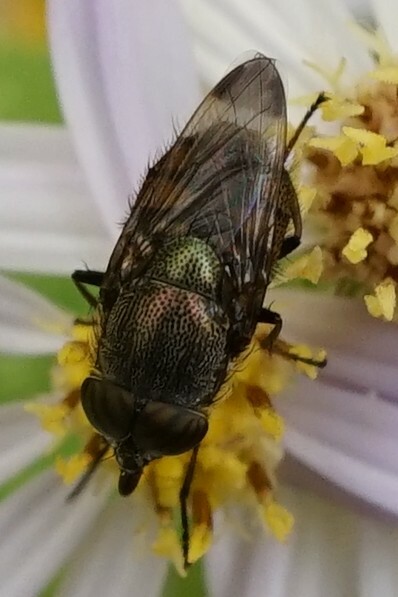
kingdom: Animalia
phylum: Arthropoda
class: Insecta
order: Diptera
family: Calliphoridae
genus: Rhinia
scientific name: Rhinia obsoleta
